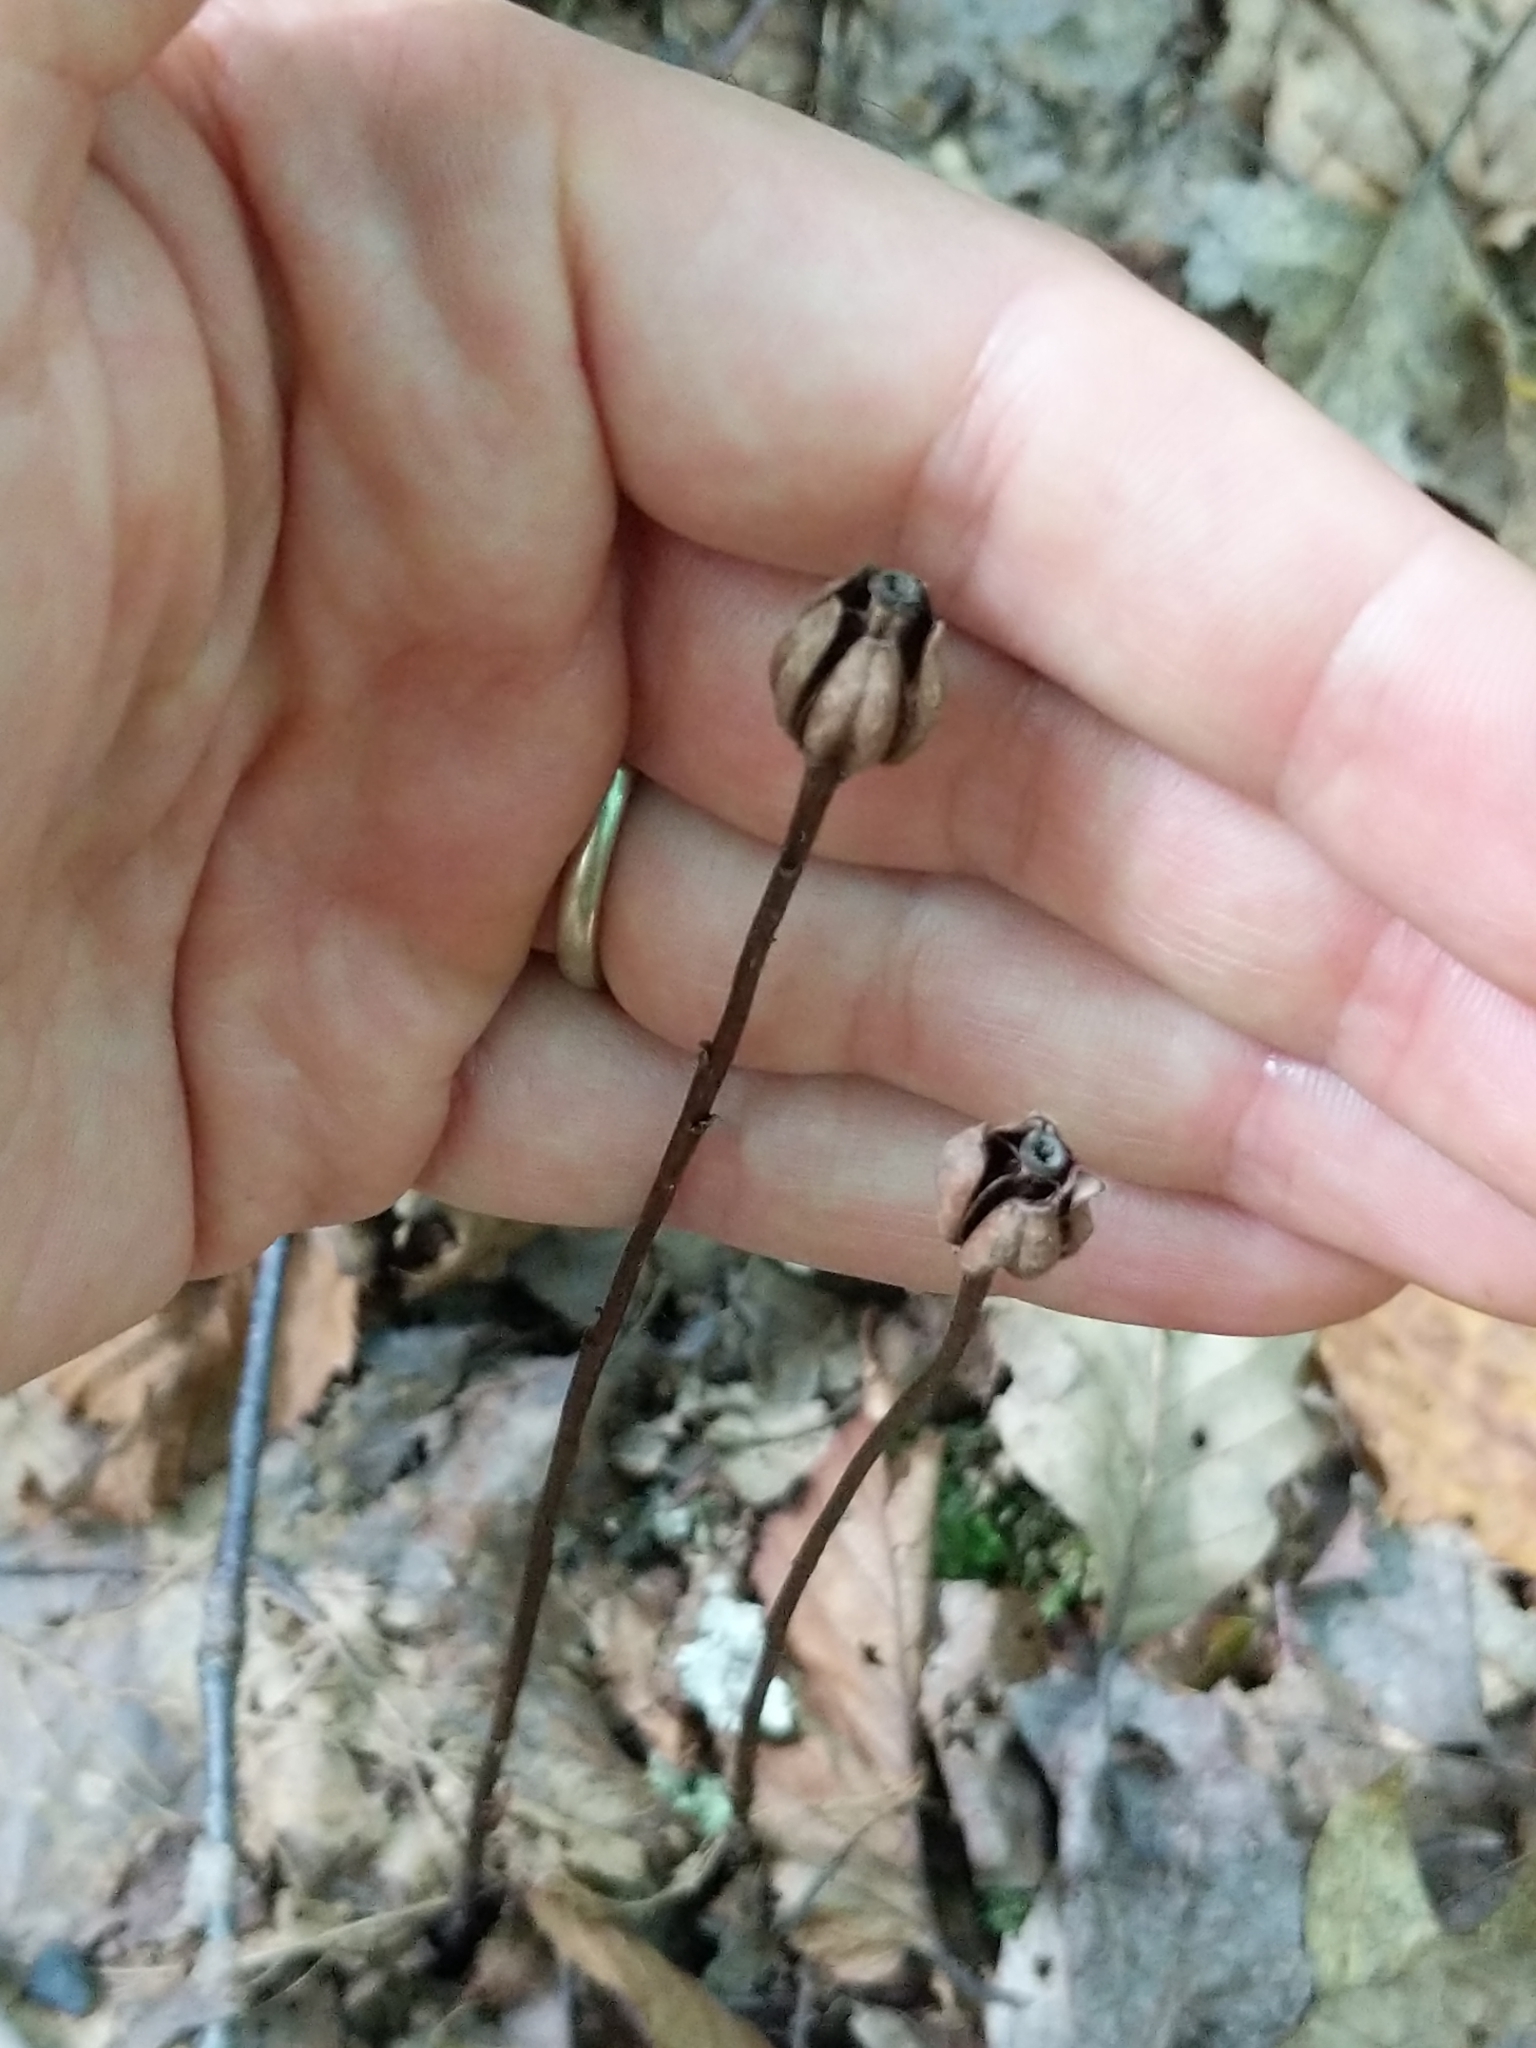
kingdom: Plantae
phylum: Tracheophyta
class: Magnoliopsida
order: Ericales
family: Ericaceae
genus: Monotropa
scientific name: Monotropa uniflora
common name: Convulsion root
